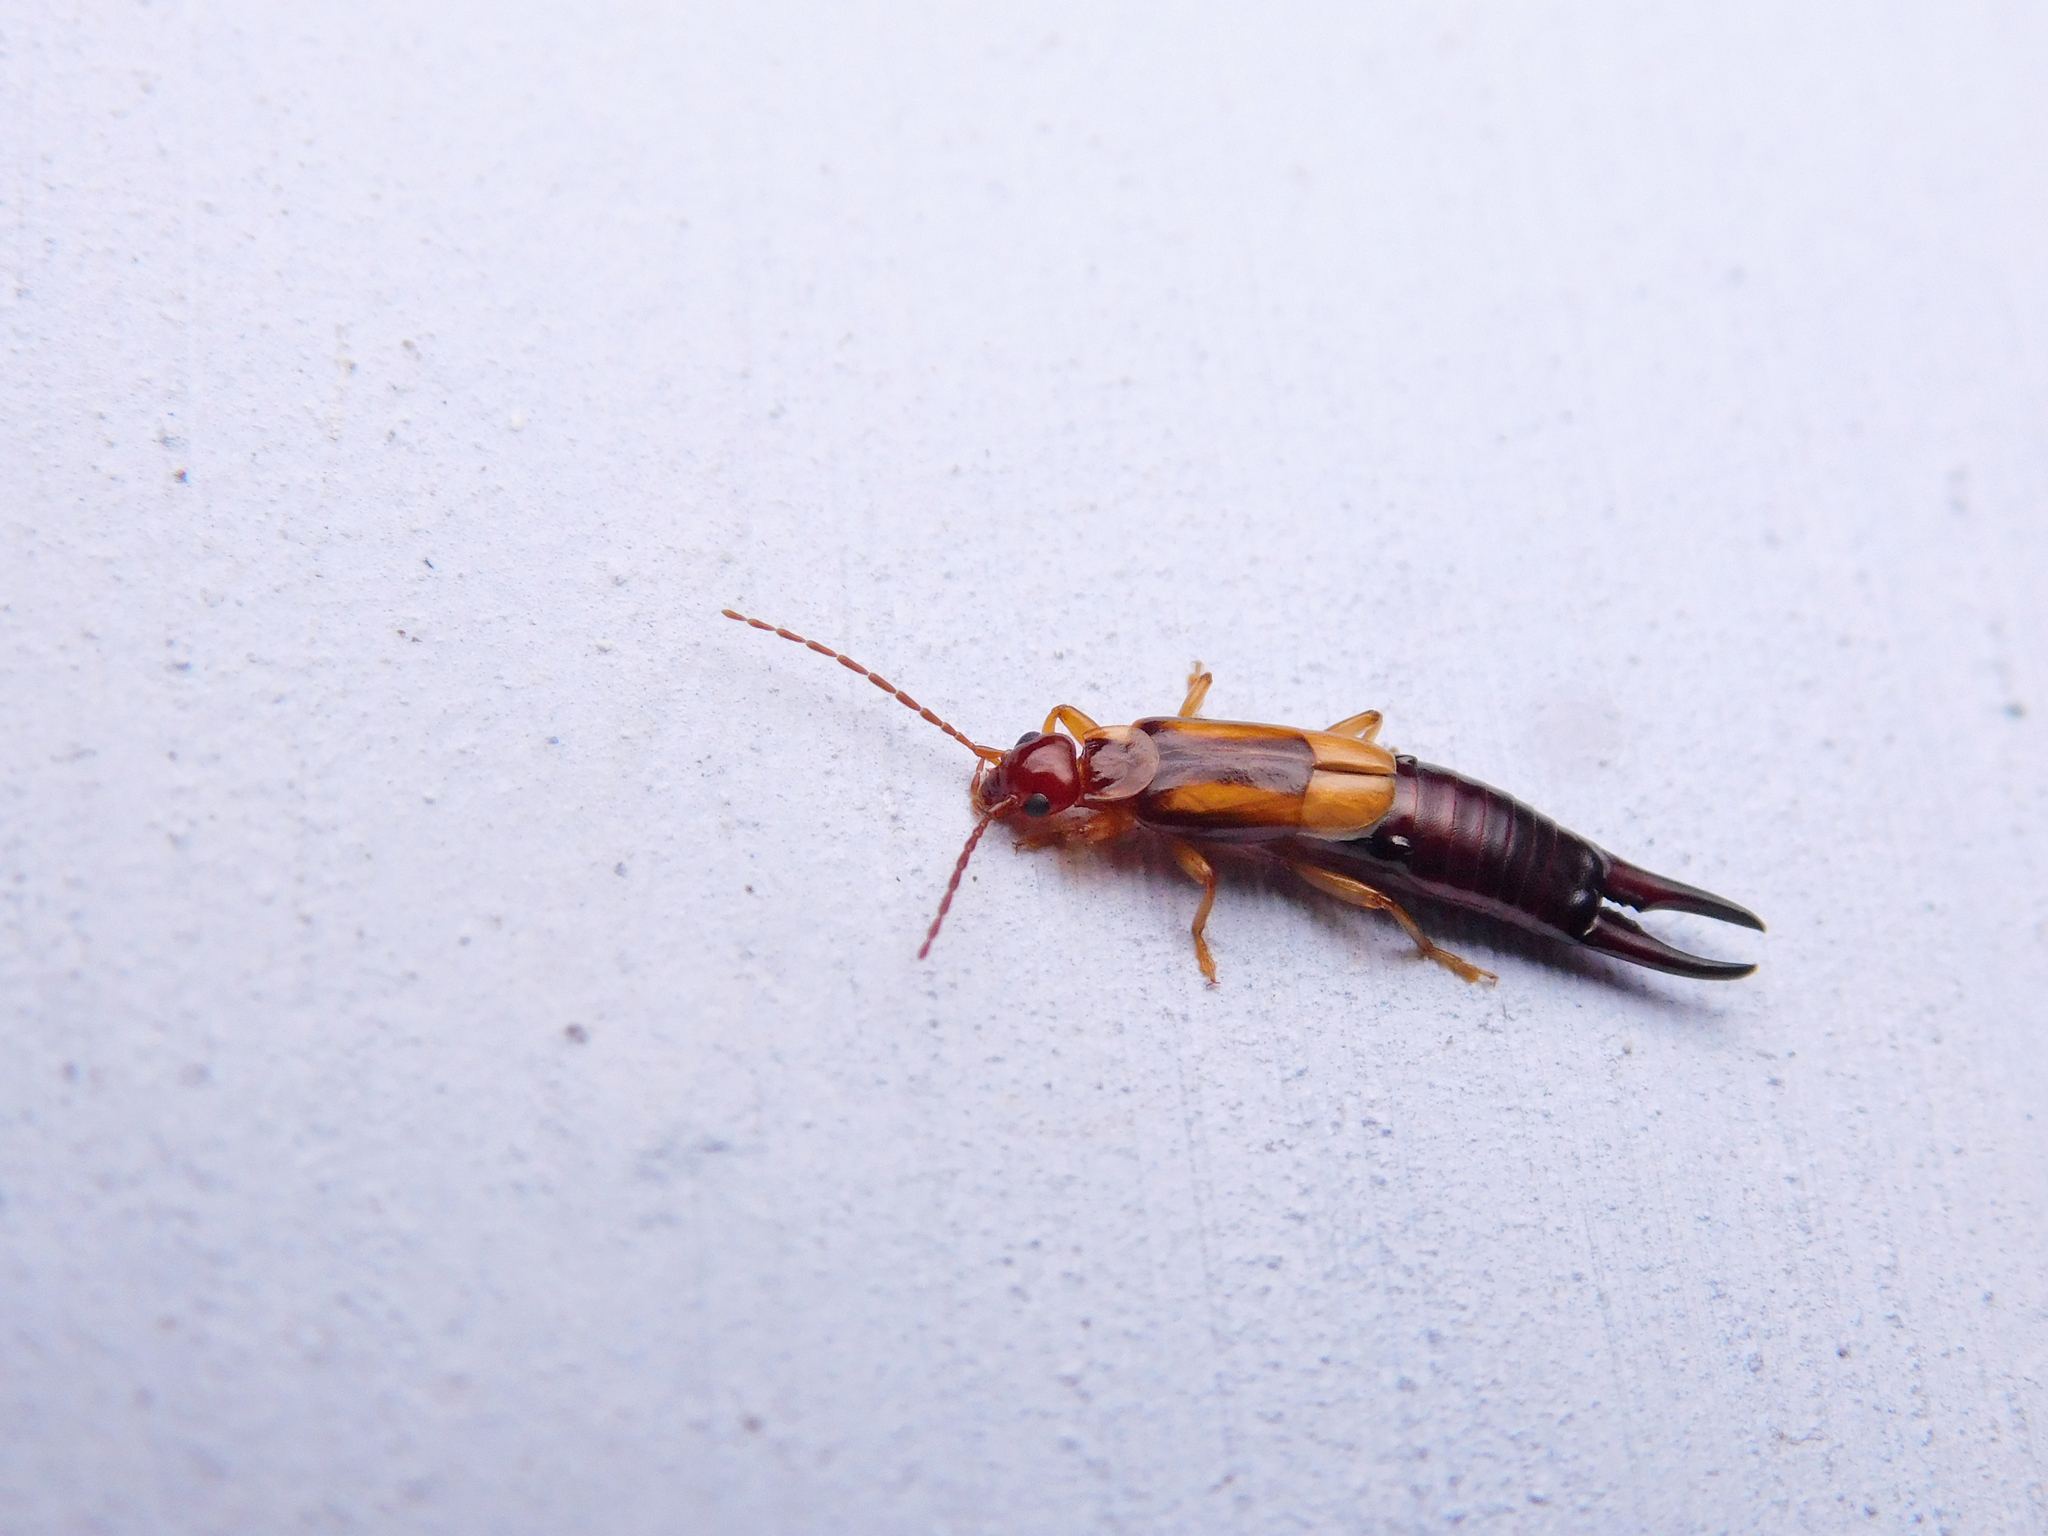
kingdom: Animalia
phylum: Arthropoda
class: Insecta
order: Dermaptera
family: Forficulidae
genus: Forficula
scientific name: Forficula greeni
